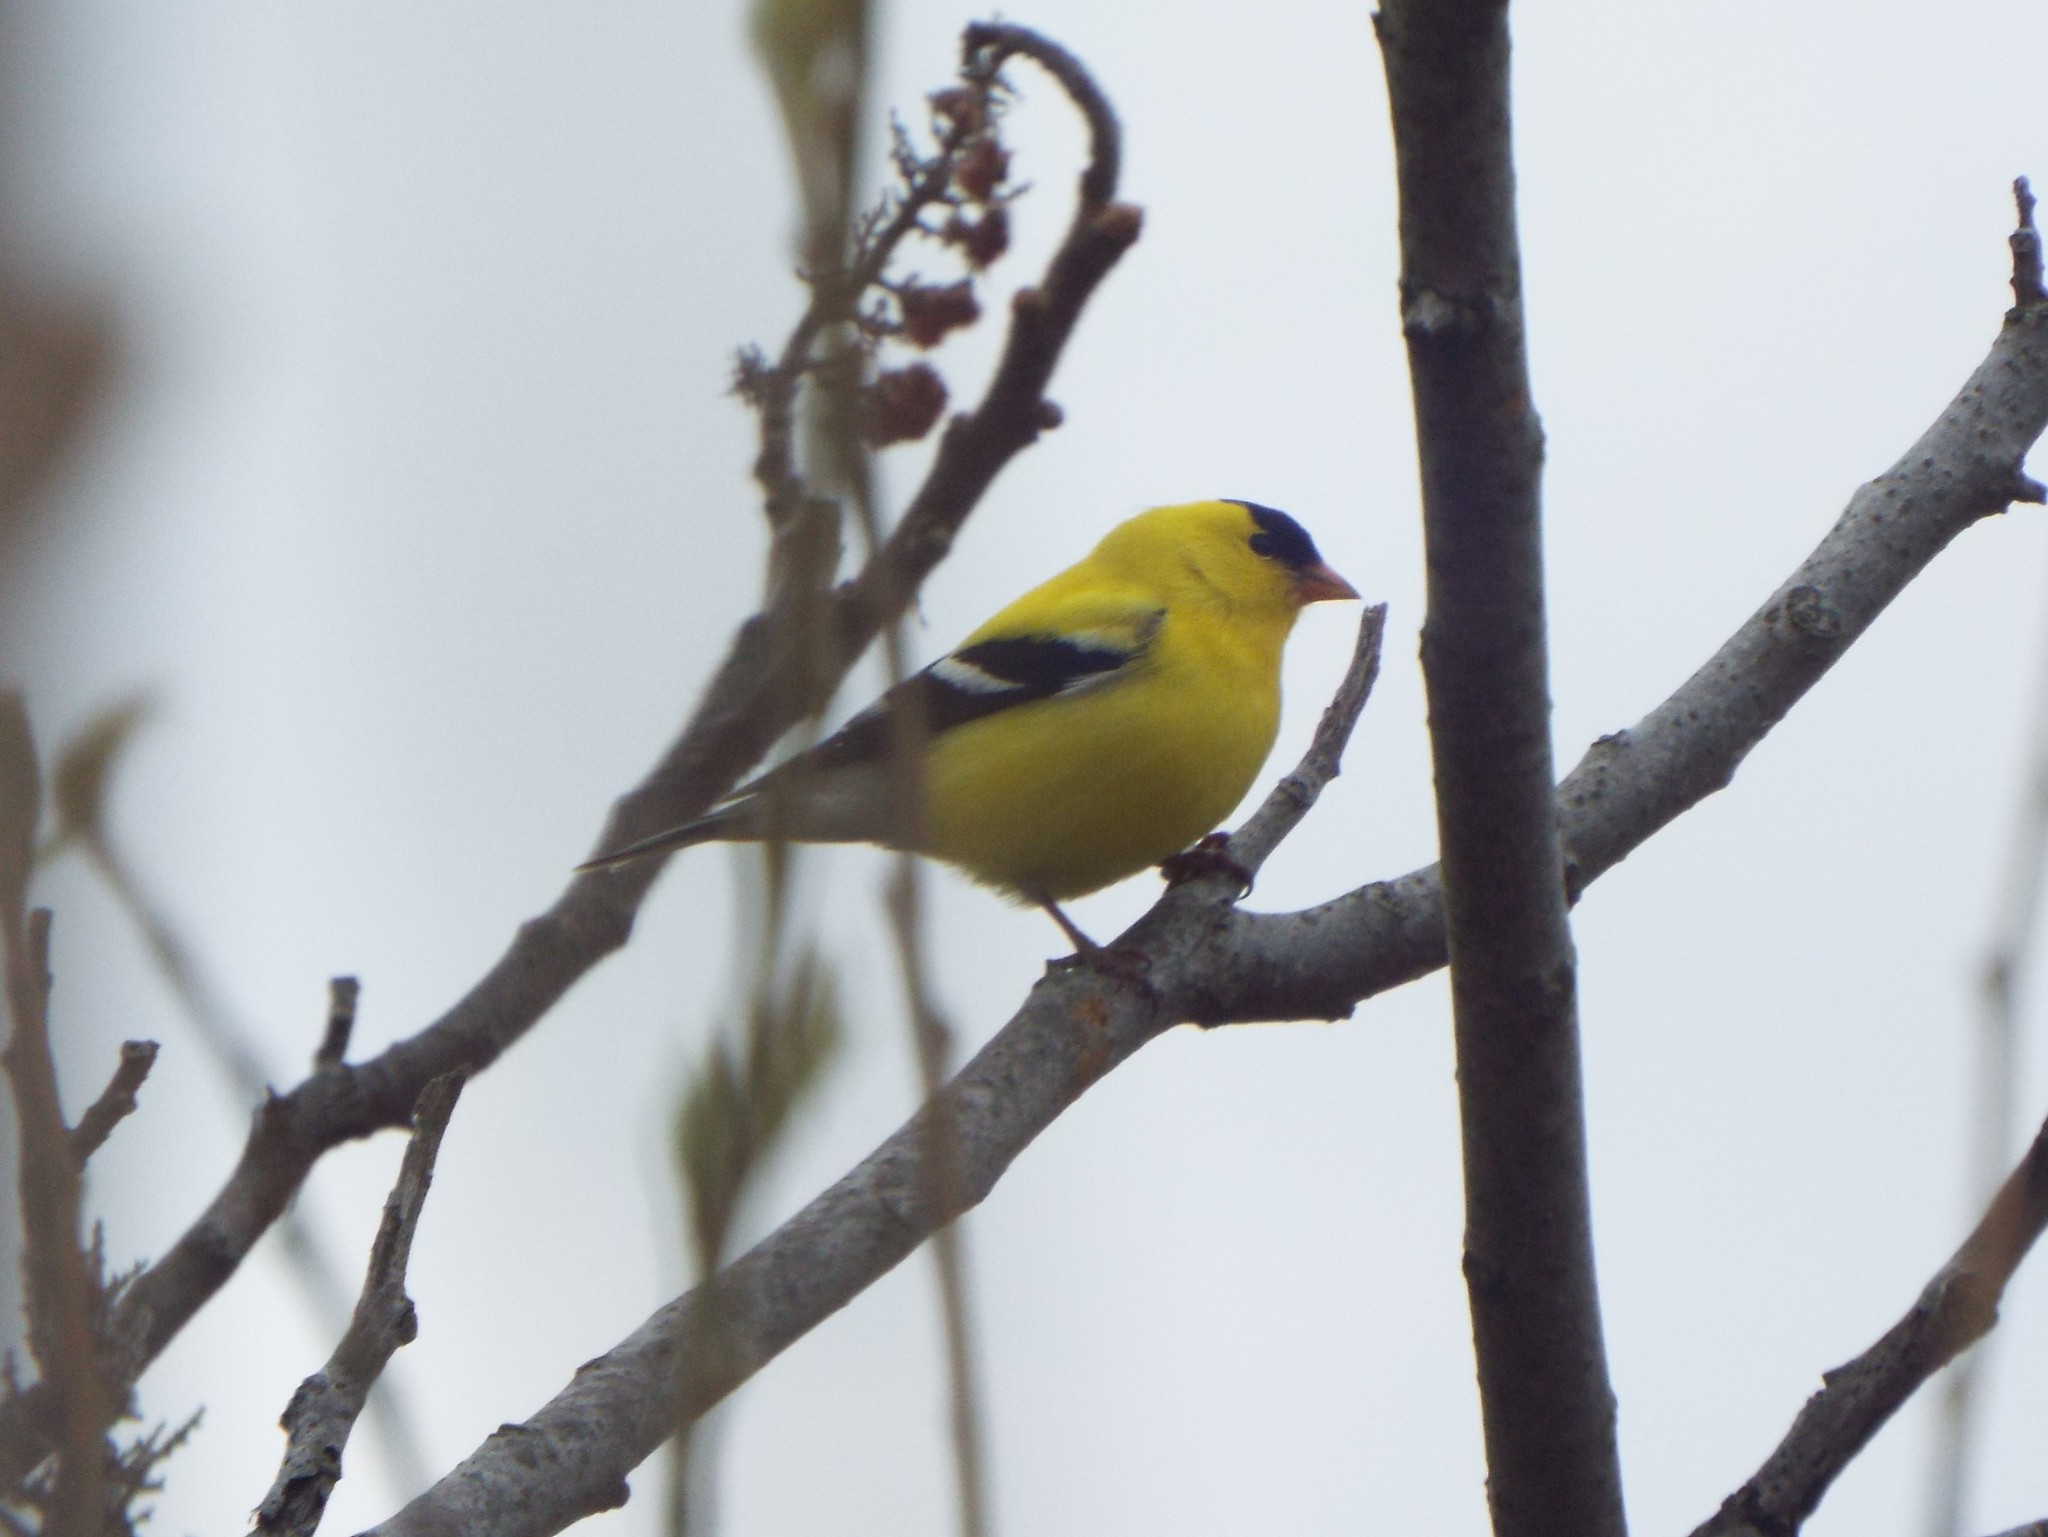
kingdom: Animalia
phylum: Chordata
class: Aves
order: Passeriformes
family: Fringillidae
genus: Spinus
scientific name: Spinus tristis
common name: American goldfinch
